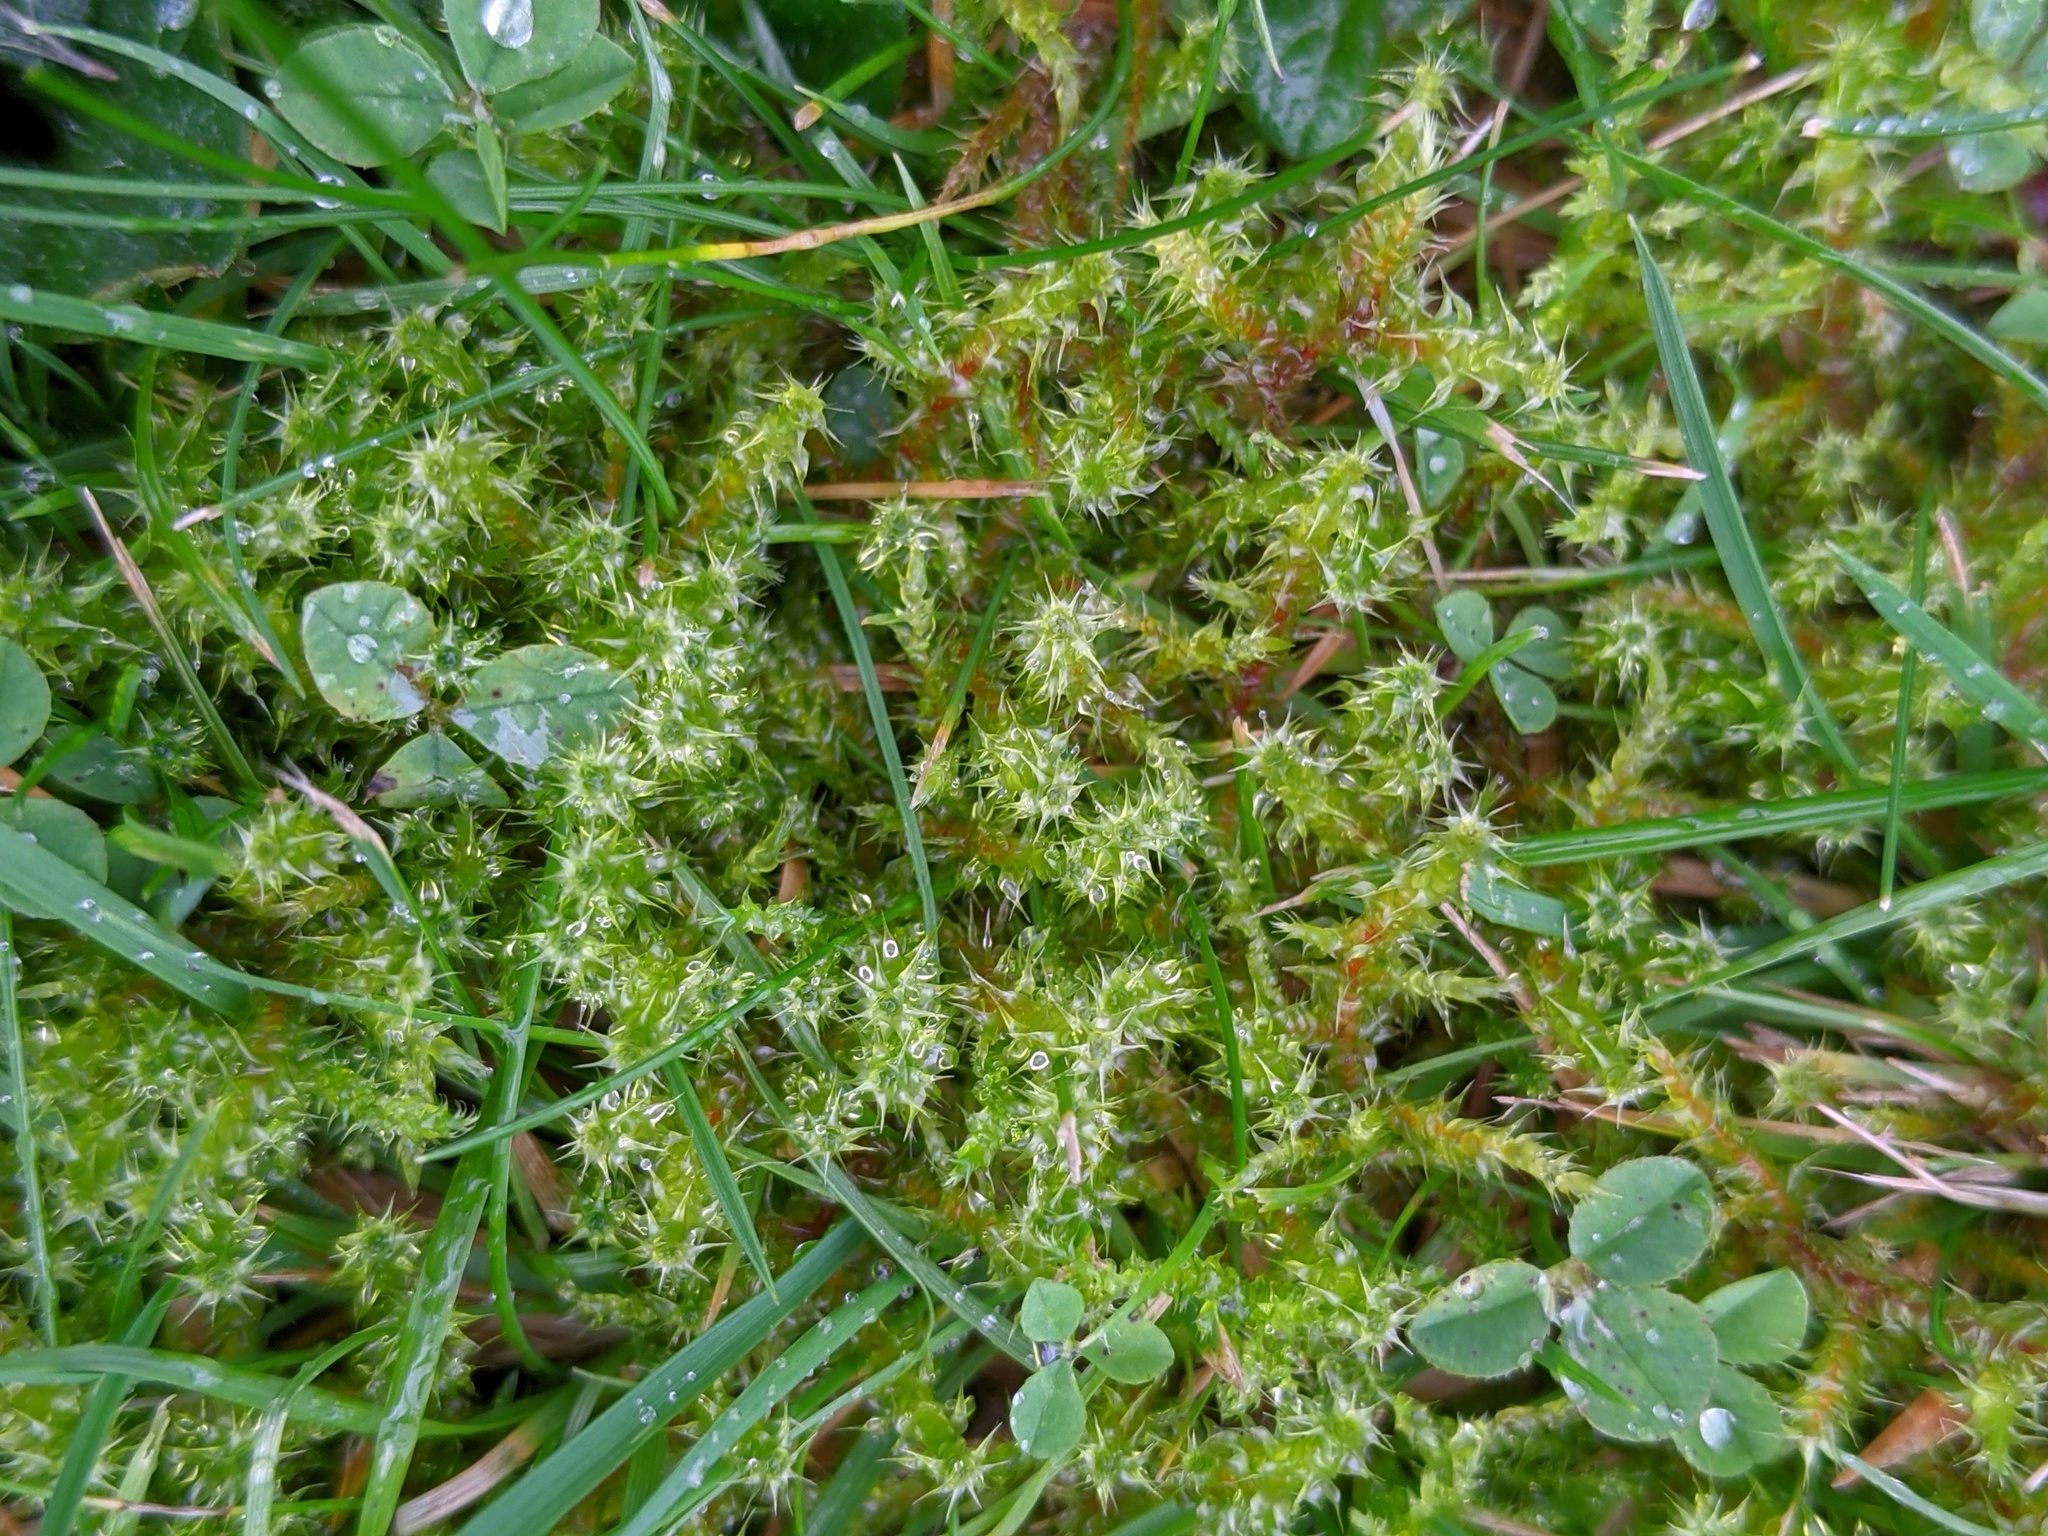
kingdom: Plantae
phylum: Bryophyta
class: Bryopsida
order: Hypnales
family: Hylocomiaceae
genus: Rhytidiadelphus
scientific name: Rhytidiadelphus squarrosus
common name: Springy turf-moss
